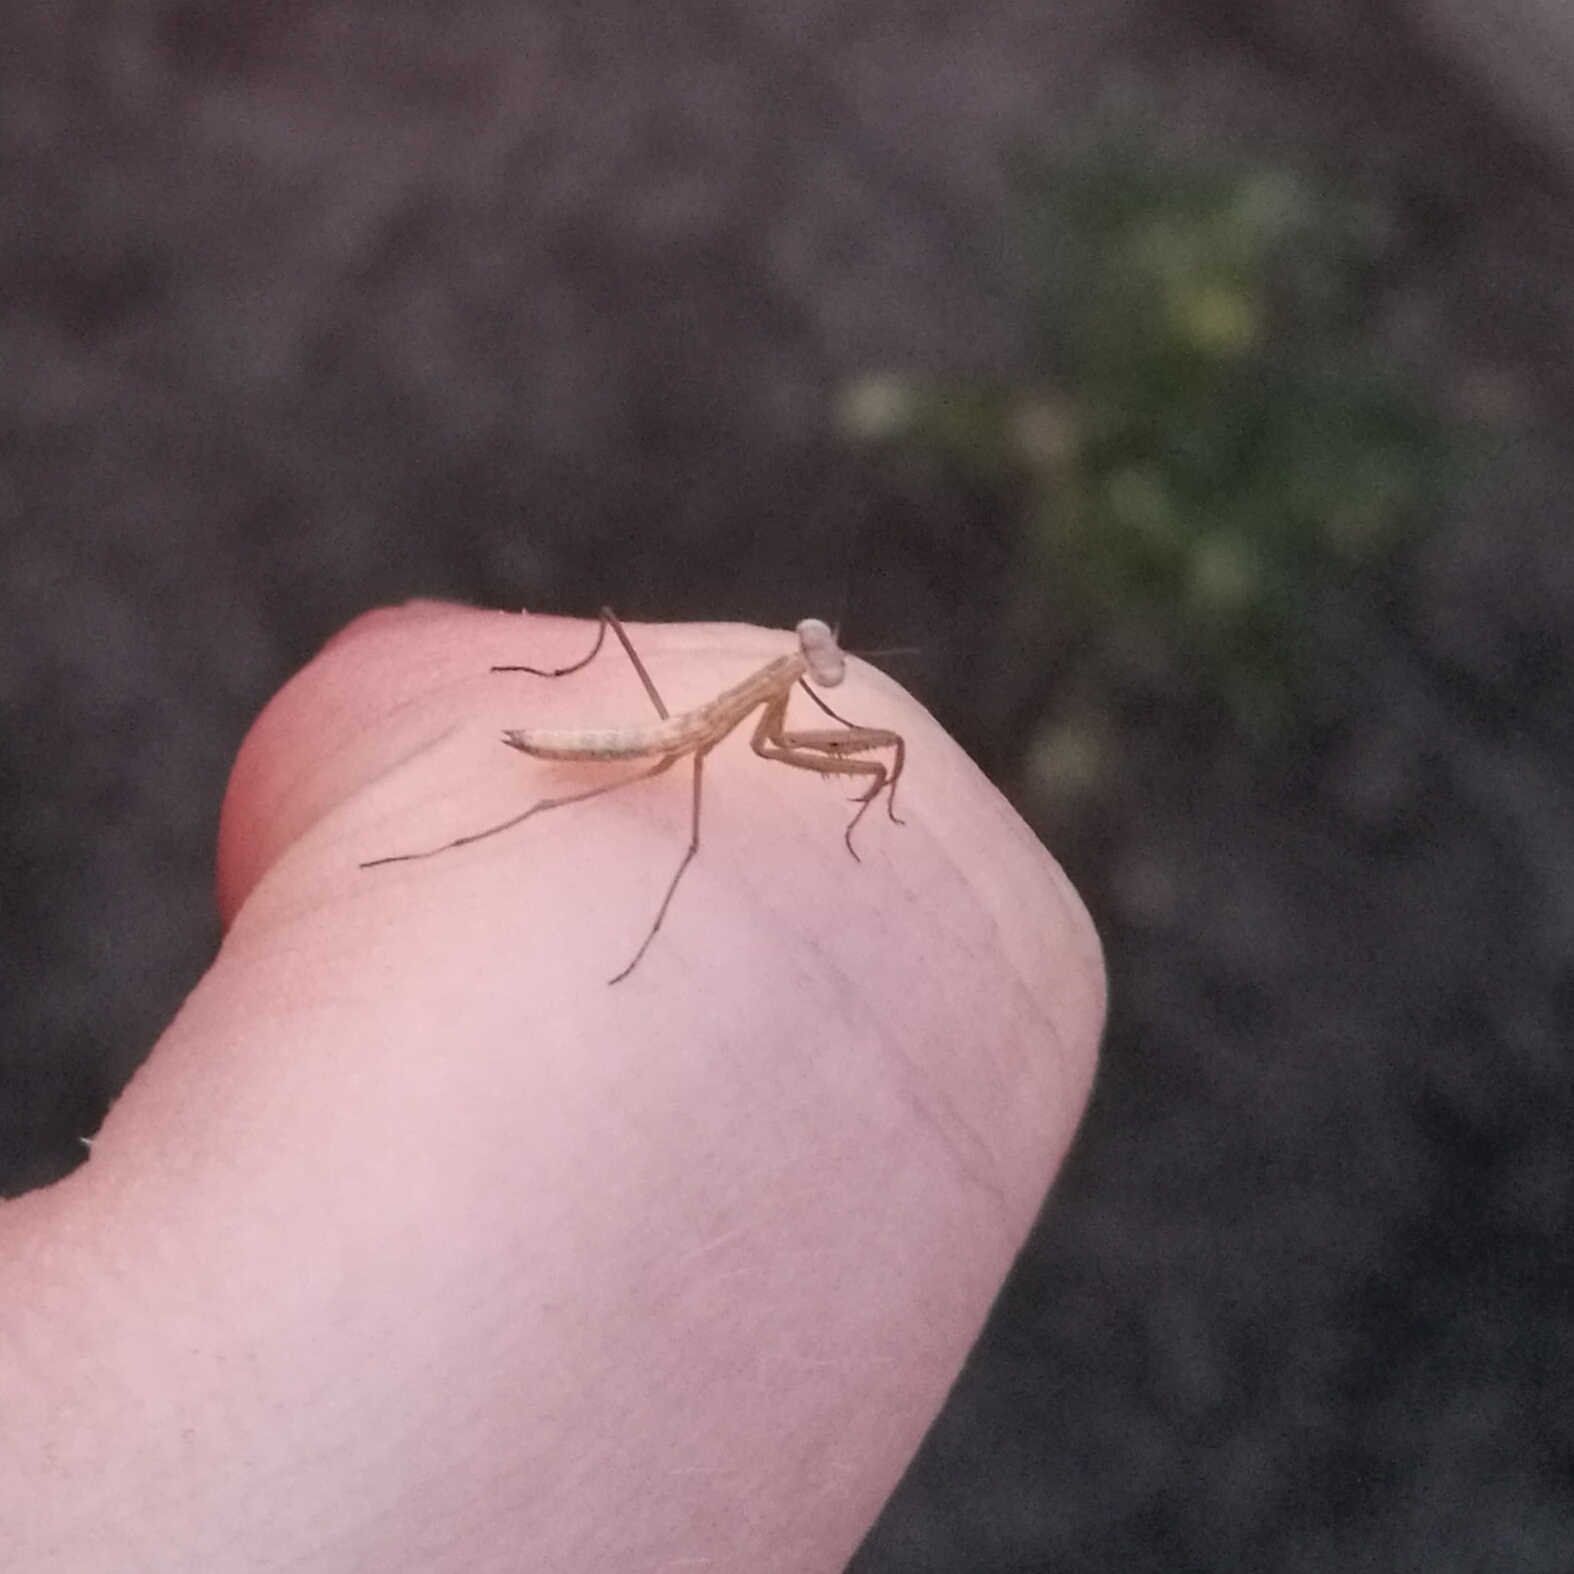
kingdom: Animalia
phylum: Arthropoda
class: Insecta
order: Mantodea
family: Mantidae
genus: Mantis
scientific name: Mantis religiosa
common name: Praying mantis
